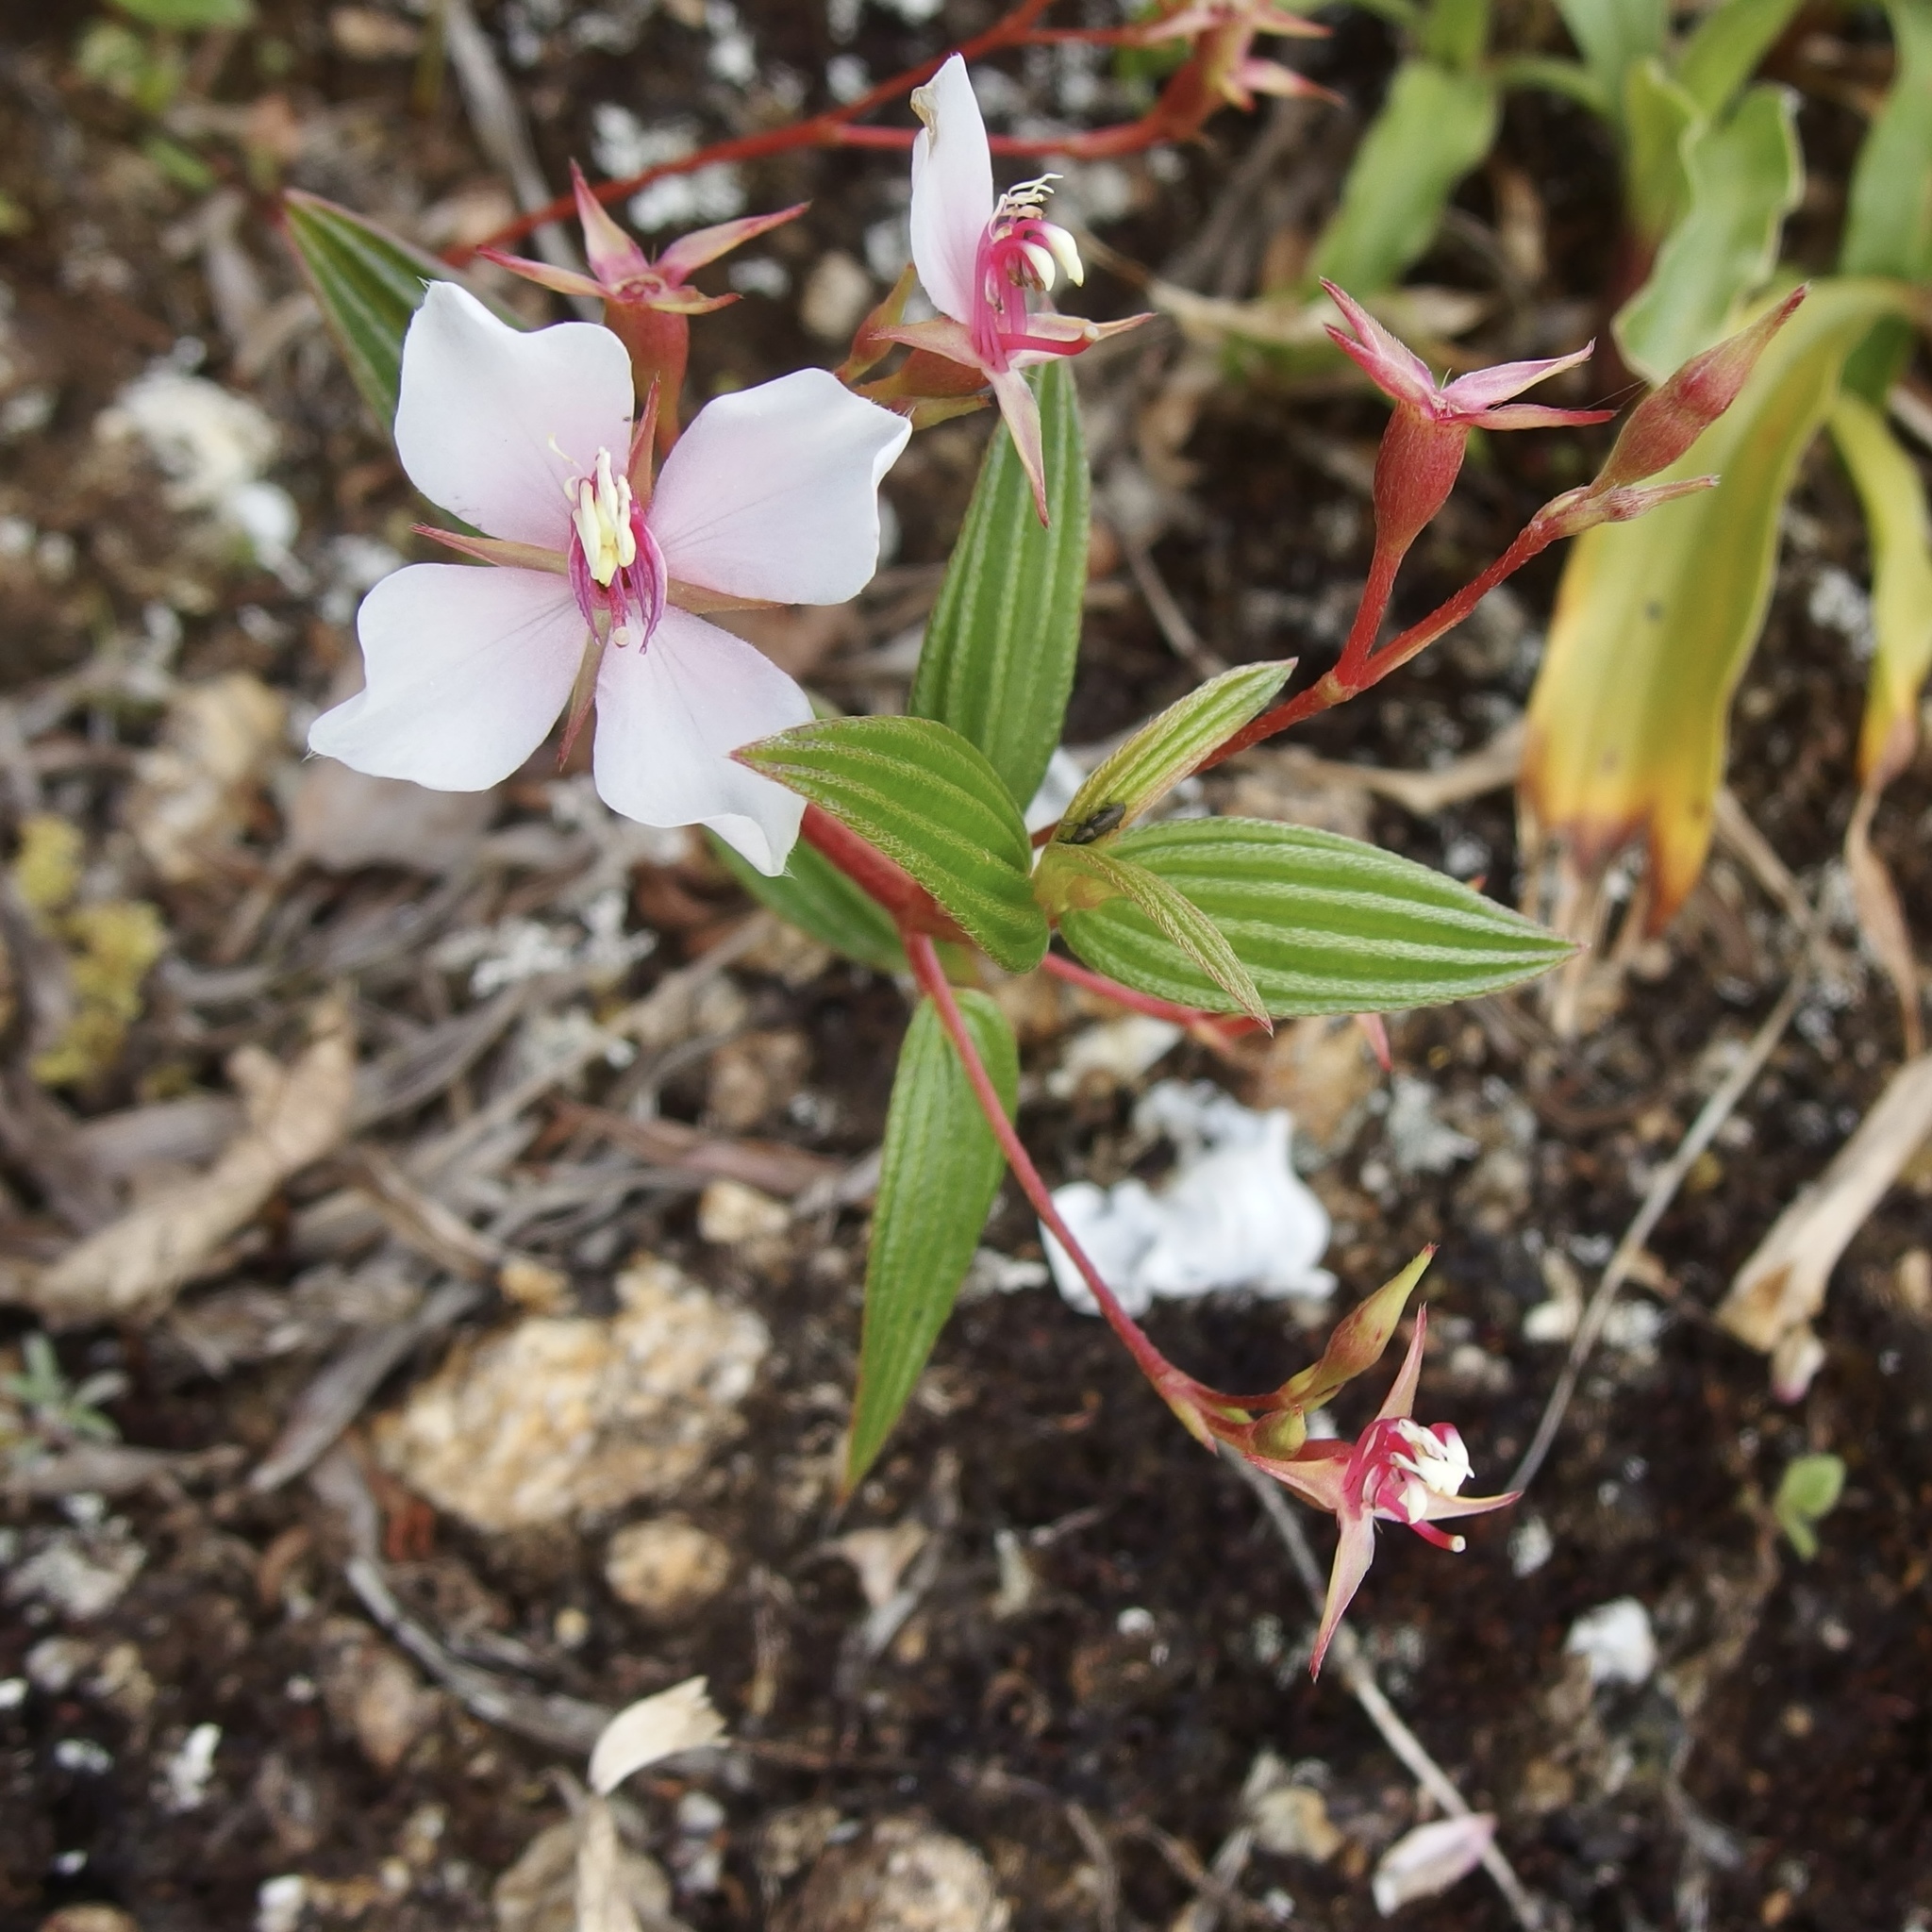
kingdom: Plantae
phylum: Tracheophyta
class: Magnoliopsida
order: Myrtales
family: Melastomataceae
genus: Monochaetum
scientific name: Monochaetum lineatum
